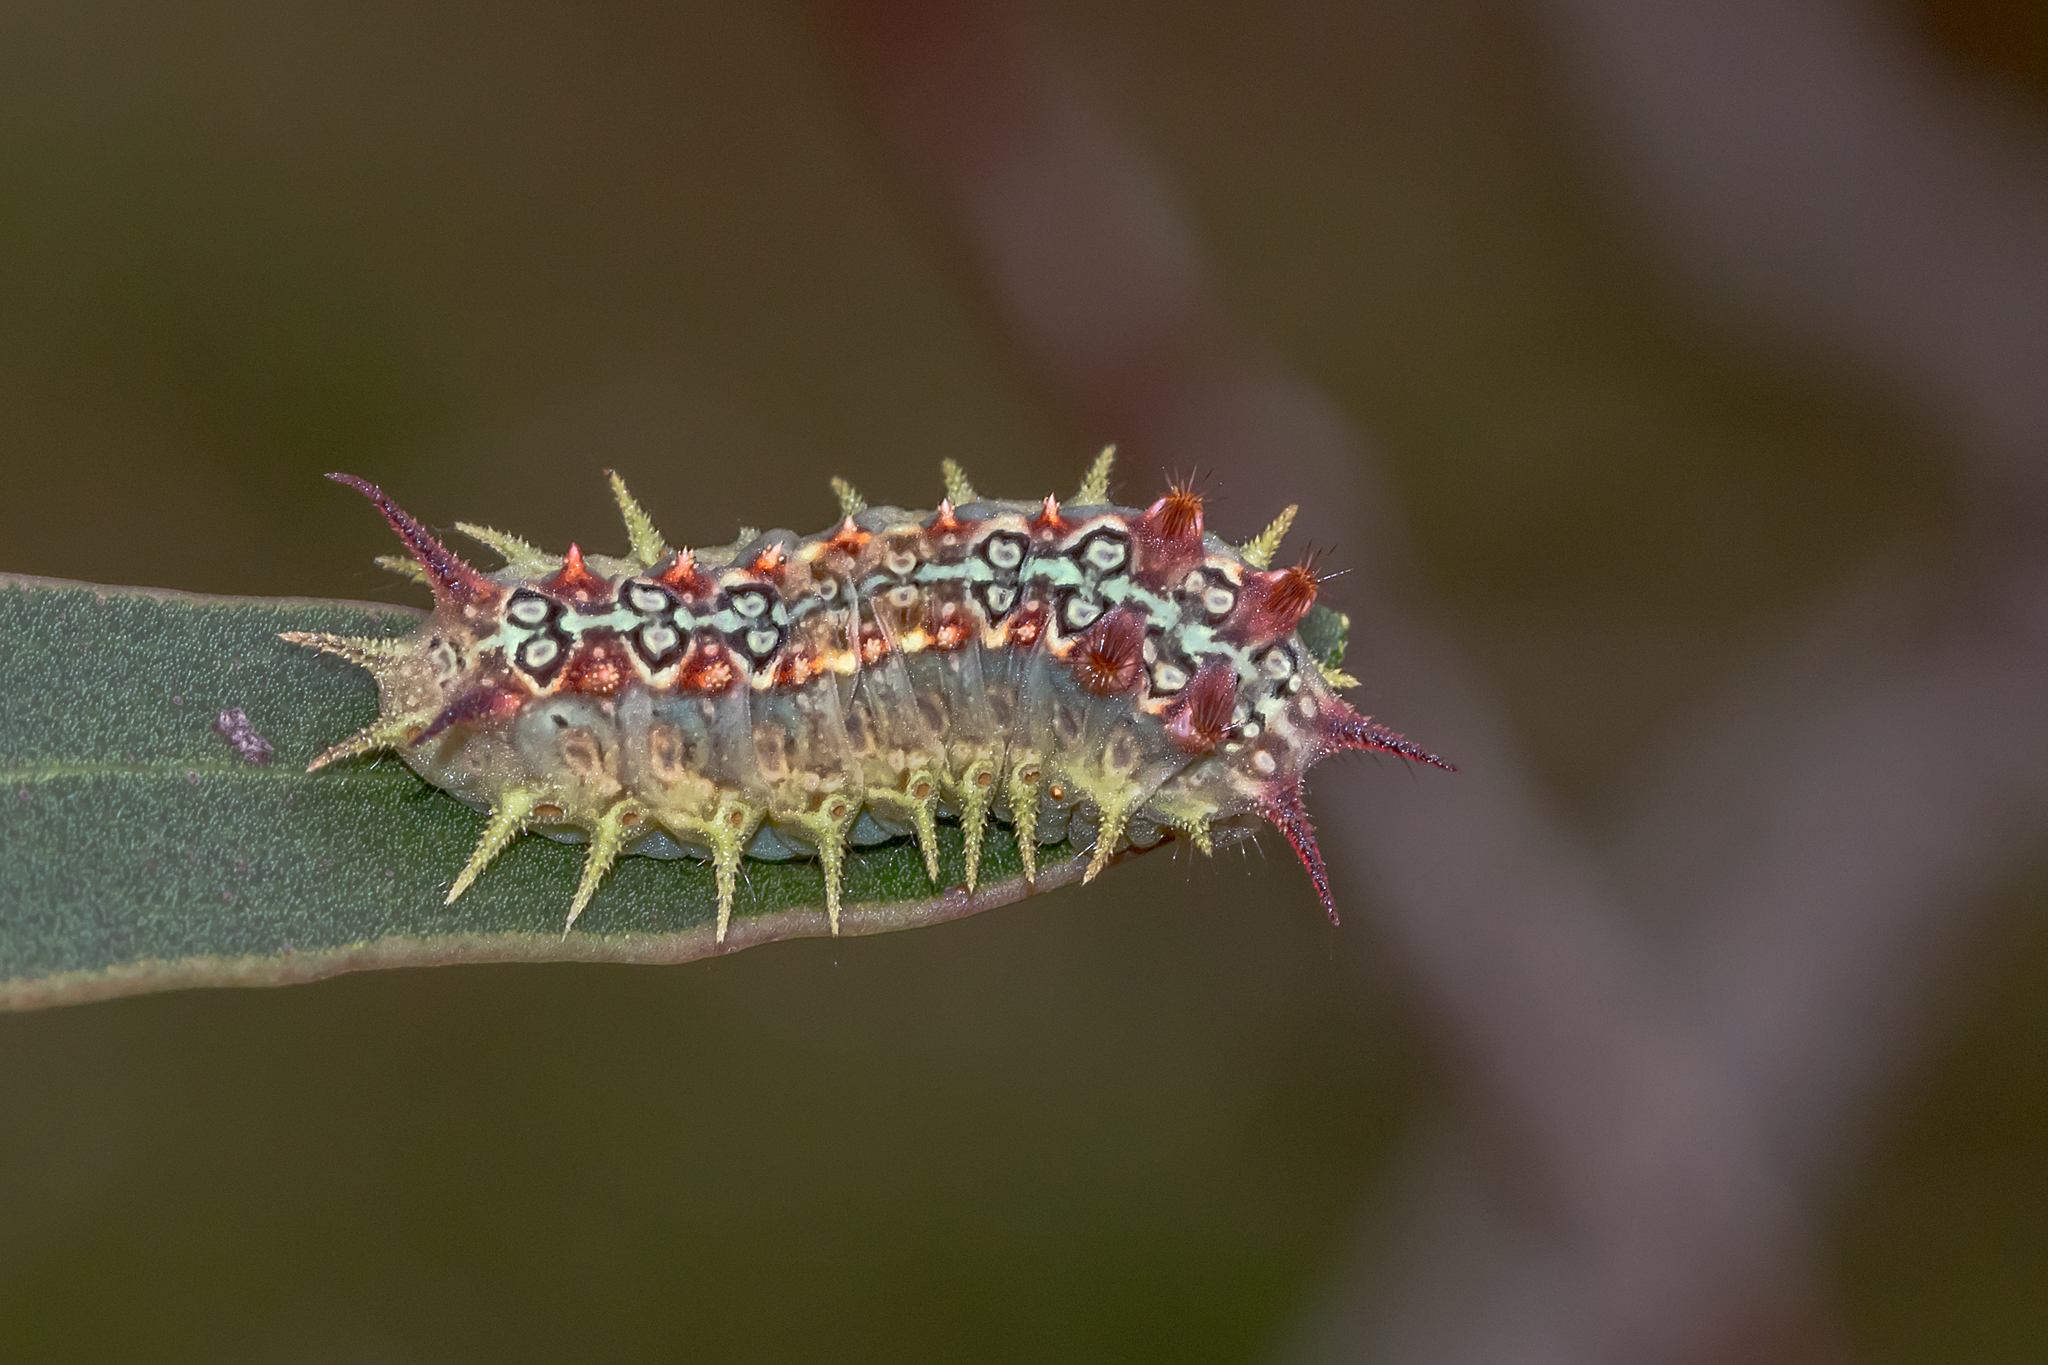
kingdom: Animalia
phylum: Arthropoda
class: Insecta
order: Lepidoptera
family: Limacodidae
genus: Doratifera
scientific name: Doratifera quadriguttata
